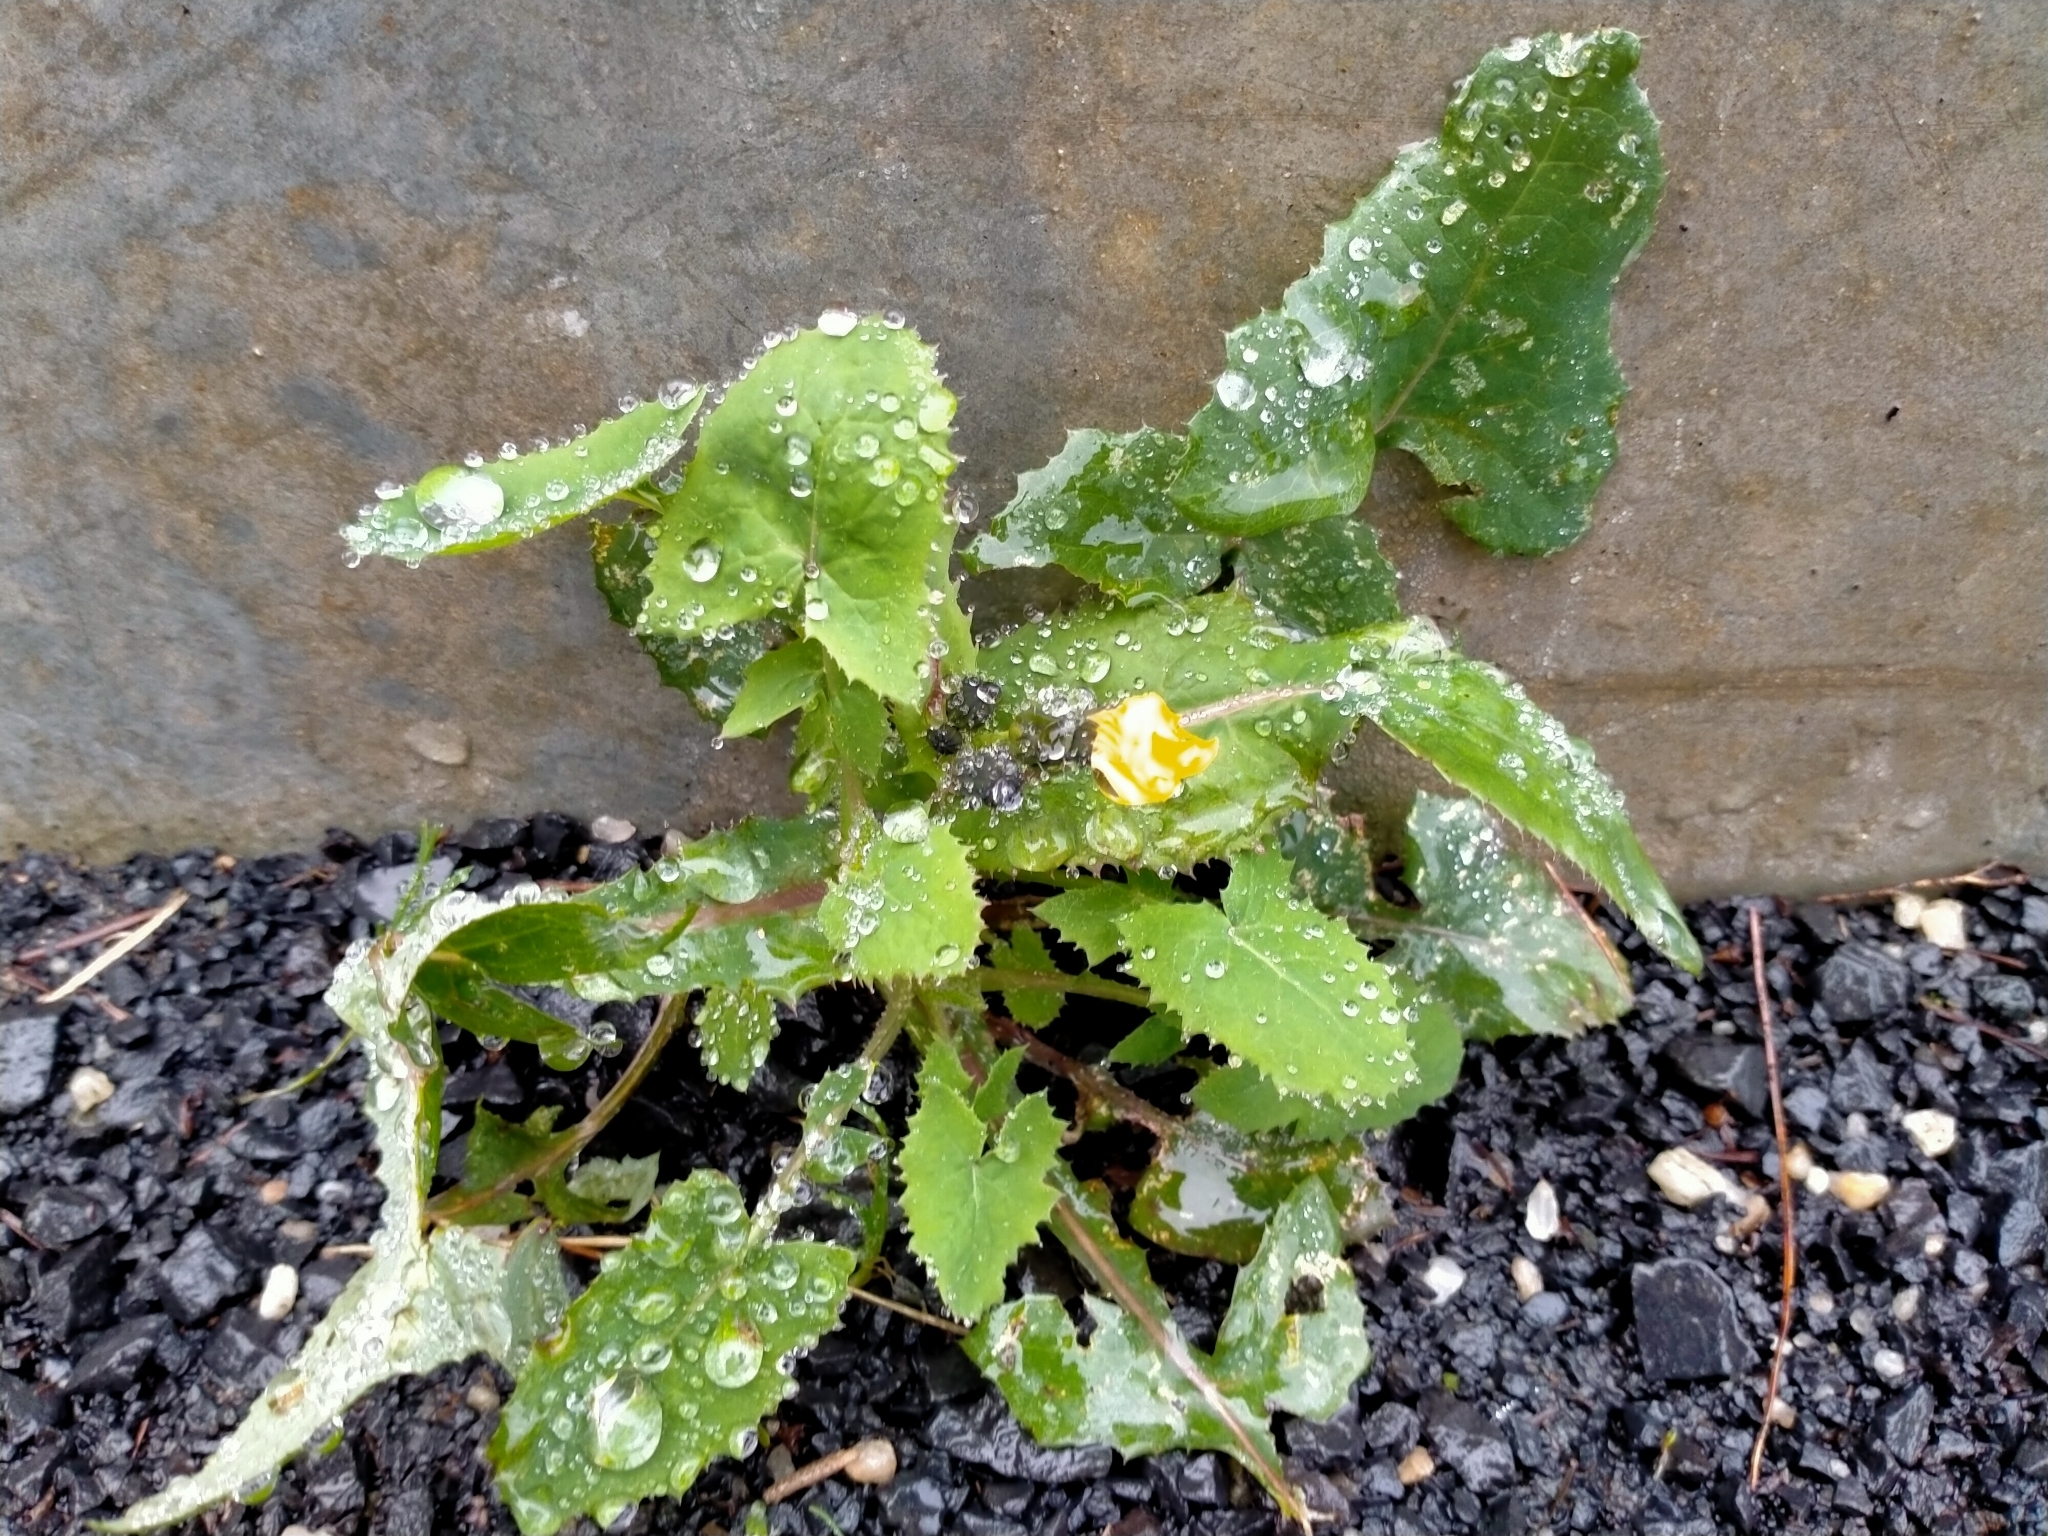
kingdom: Plantae
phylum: Tracheophyta
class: Magnoliopsida
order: Asterales
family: Asteraceae
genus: Sonchus
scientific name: Sonchus oleraceus
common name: Common sowthistle
